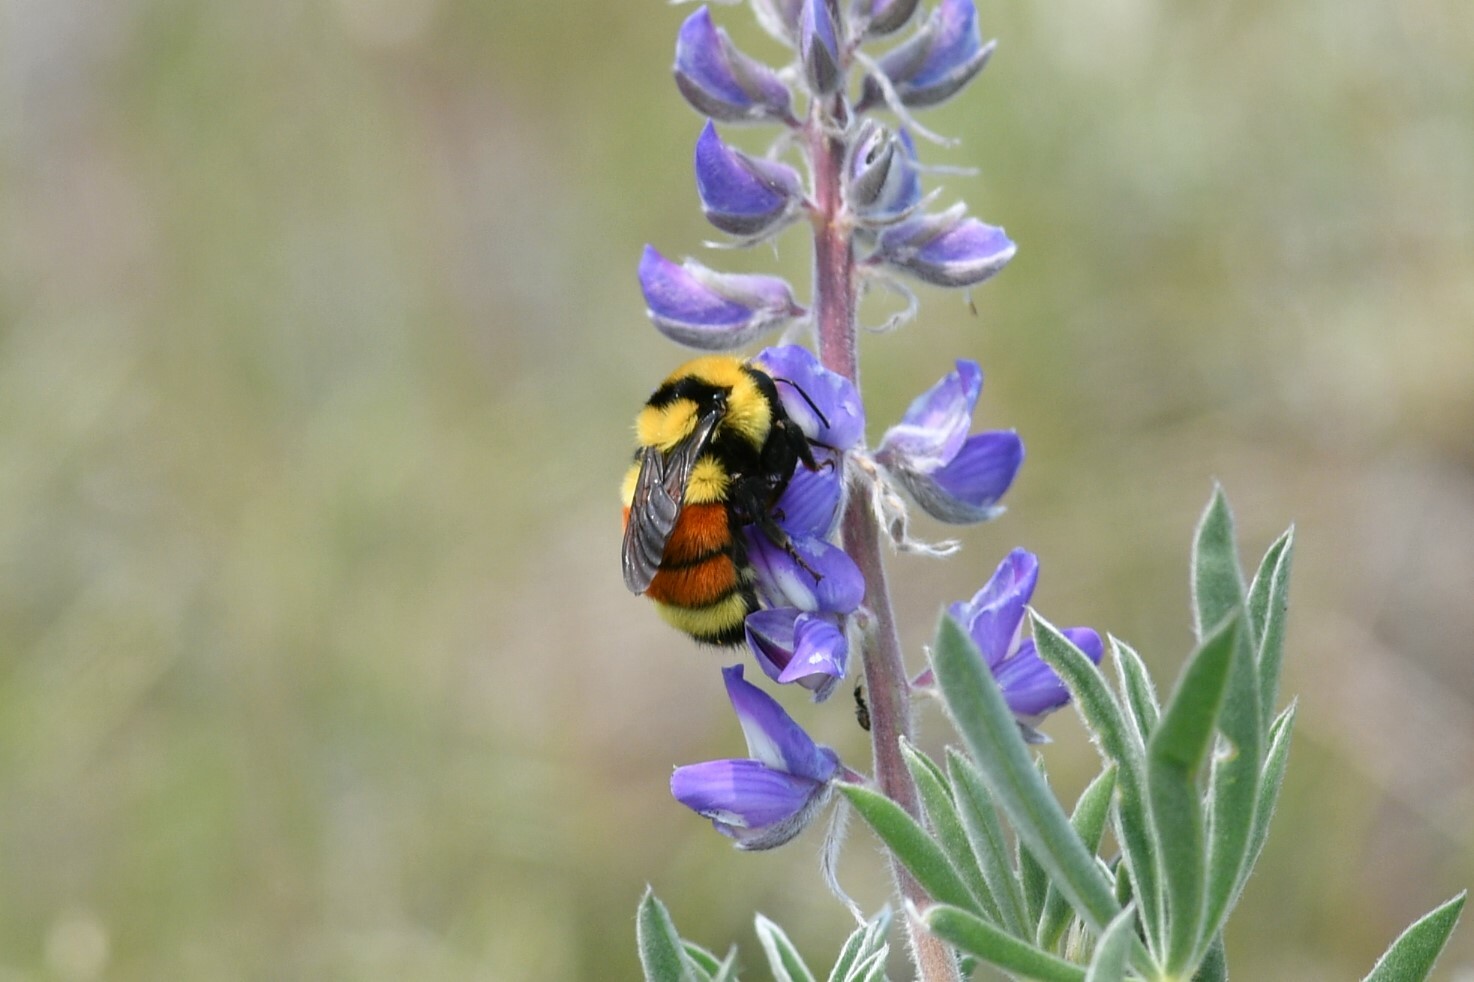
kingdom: Animalia
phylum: Arthropoda
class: Insecta
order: Hymenoptera
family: Apidae
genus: Bombus
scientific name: Bombus huntii
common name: Hunt bumble bee
